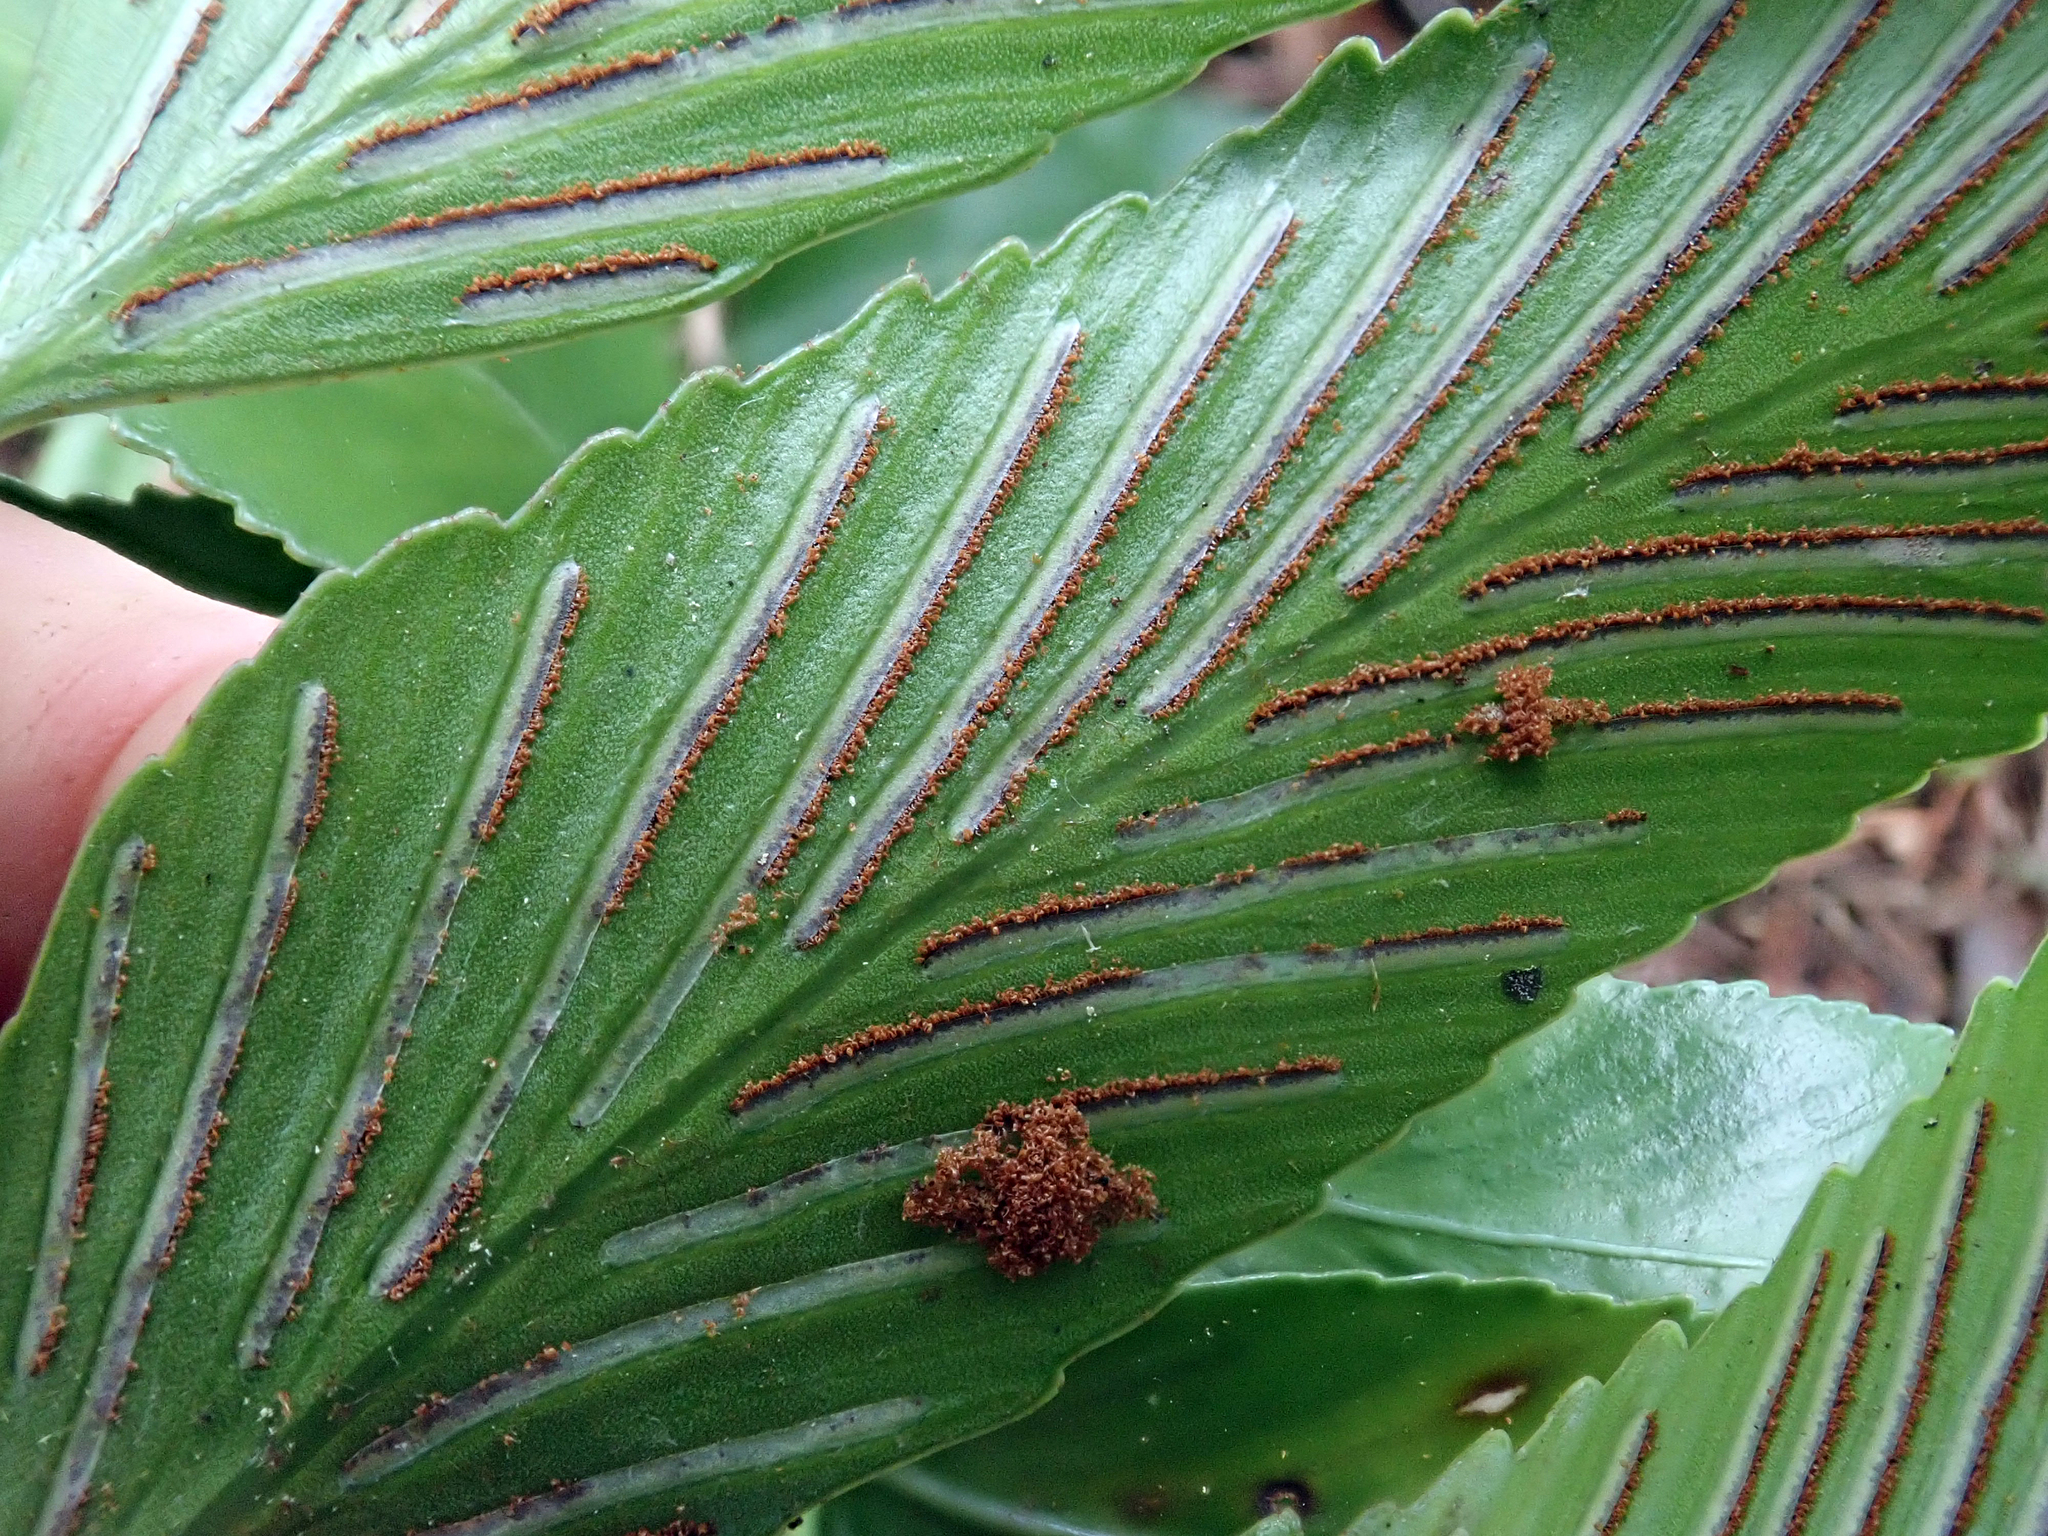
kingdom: Plantae
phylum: Tracheophyta
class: Polypodiopsida
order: Polypodiales
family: Aspleniaceae
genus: Asplenium
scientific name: Asplenium oblongifolium
